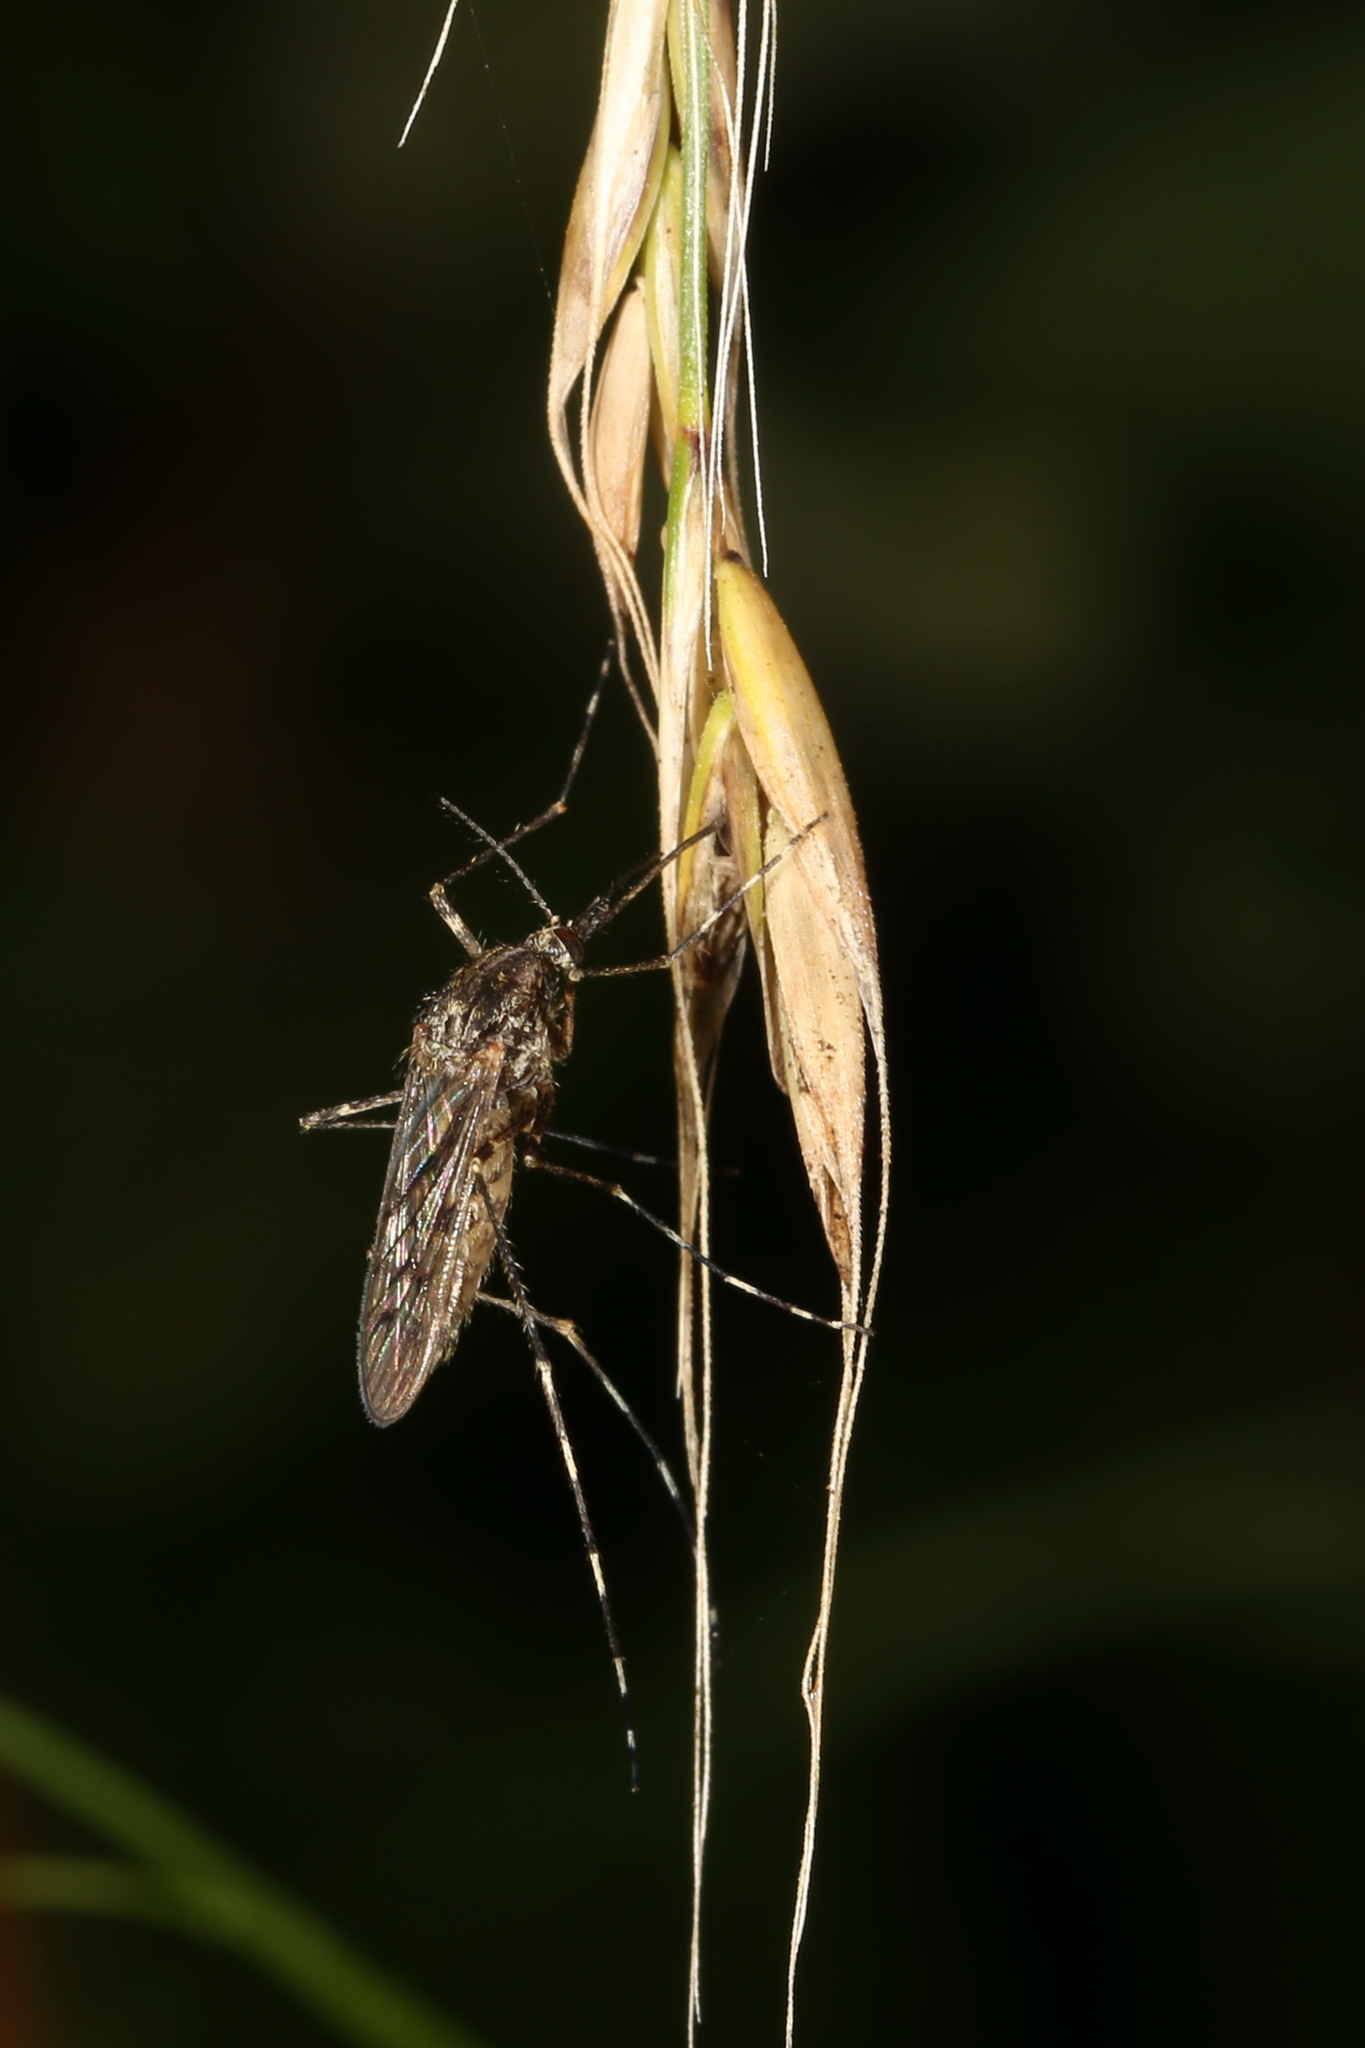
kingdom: Animalia
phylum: Arthropoda
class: Insecta
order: Diptera
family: Culicidae
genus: Culiseta
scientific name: Culiseta annulata
